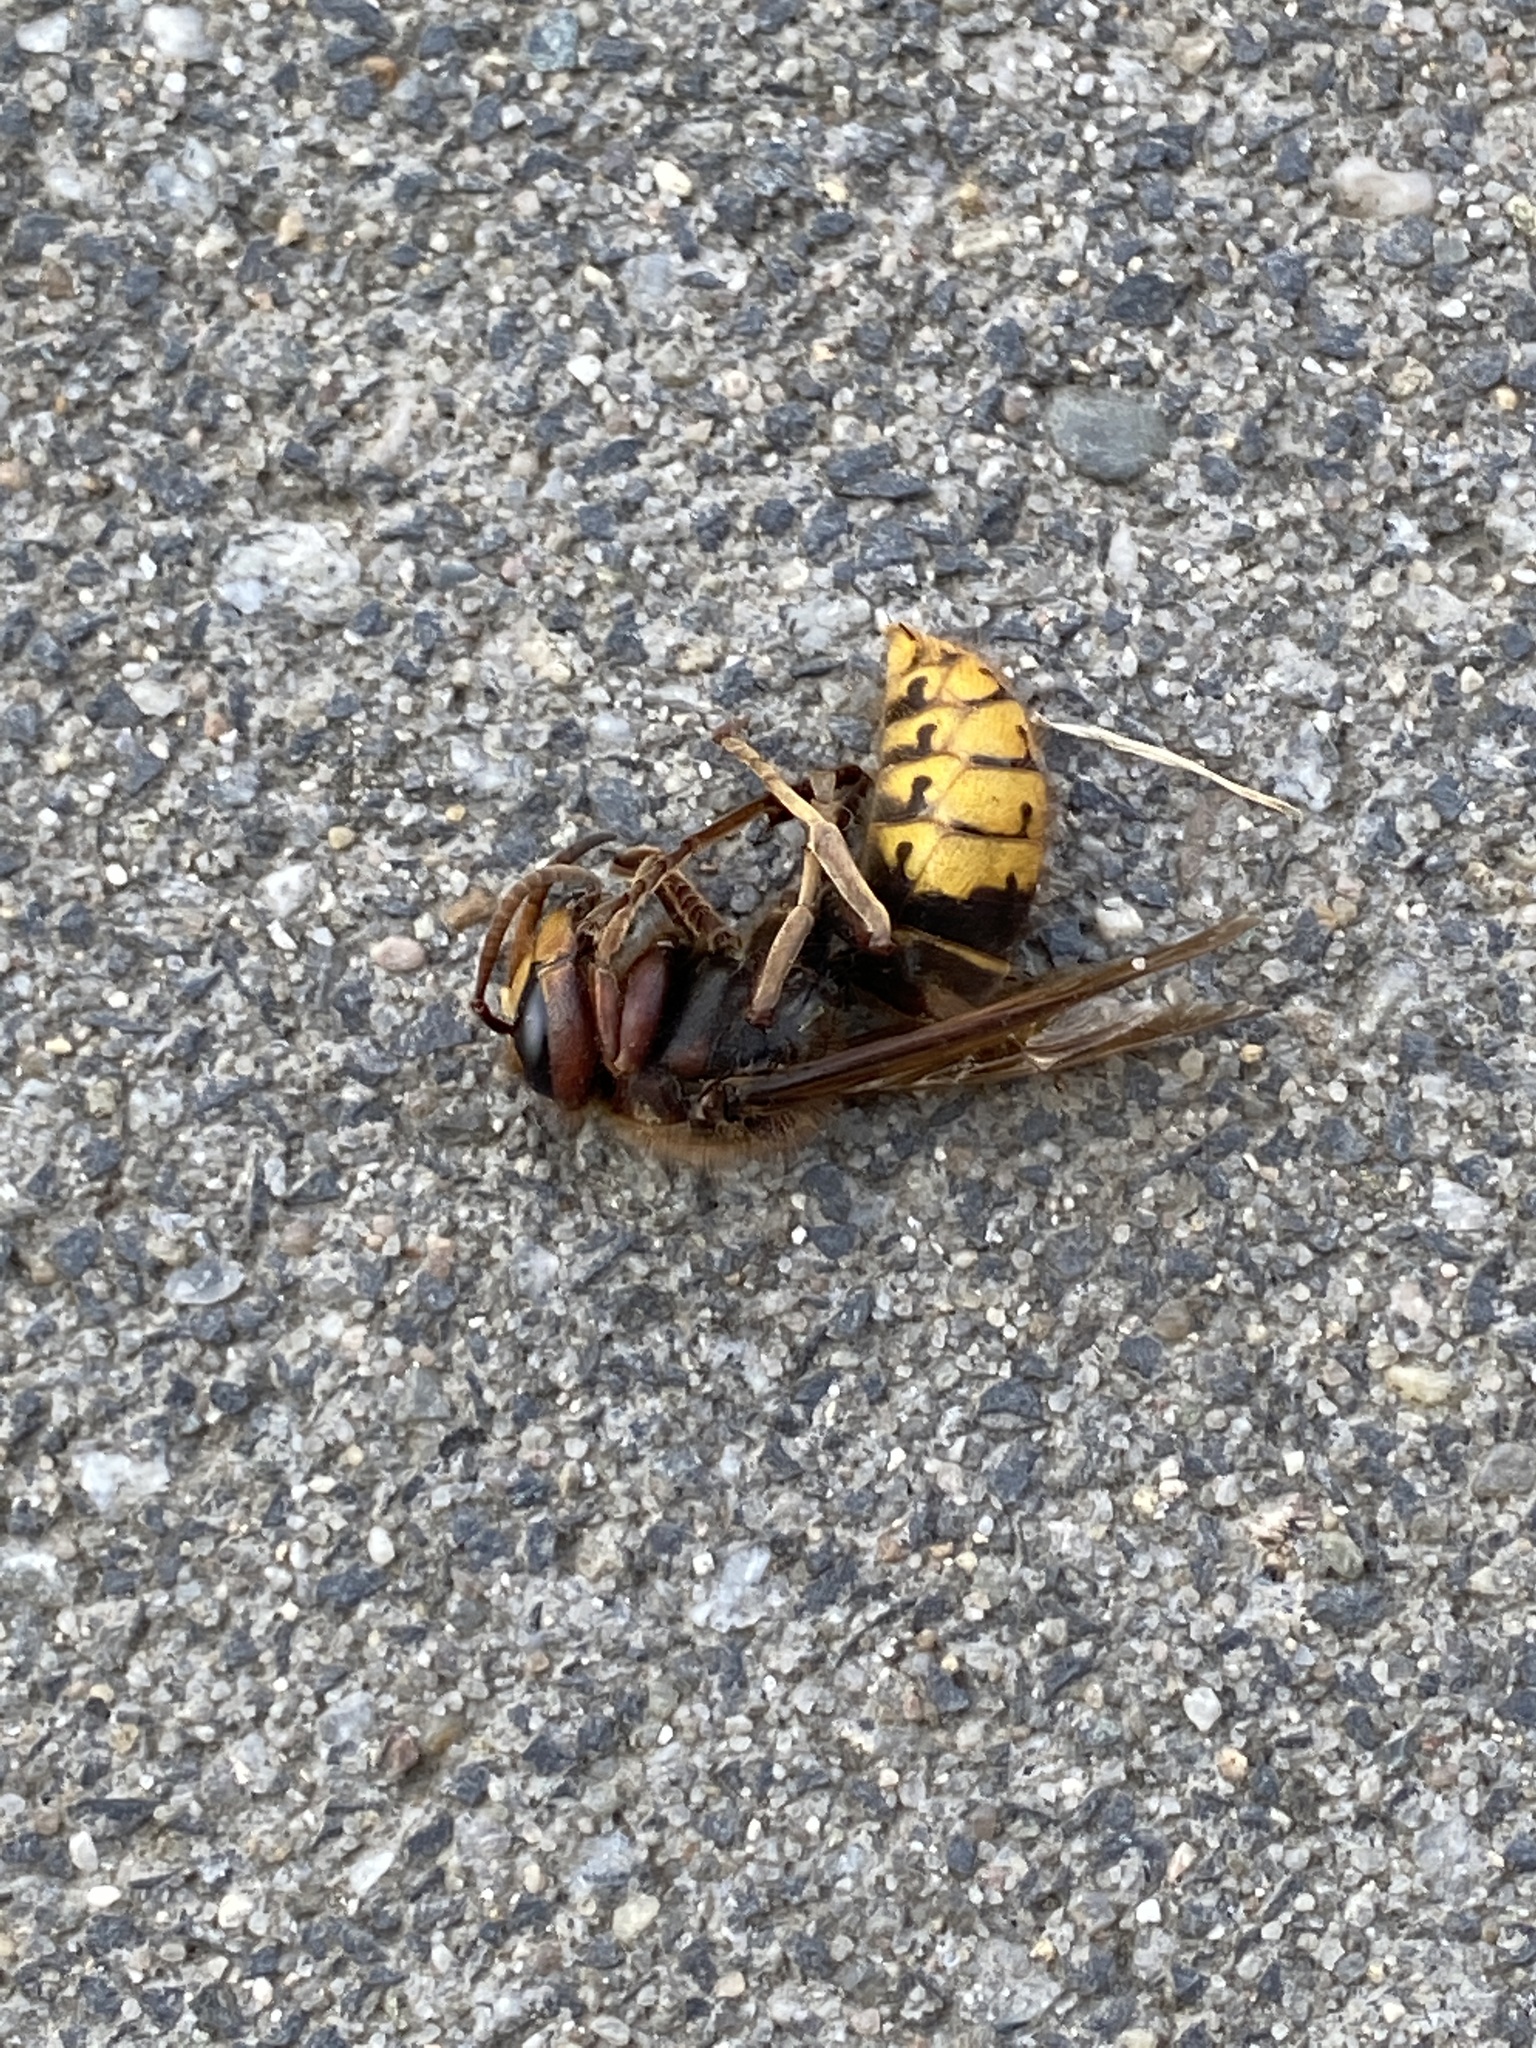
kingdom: Animalia
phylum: Arthropoda
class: Insecta
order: Hymenoptera
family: Vespidae
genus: Vespa
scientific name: Vespa crabro
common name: Hornet
